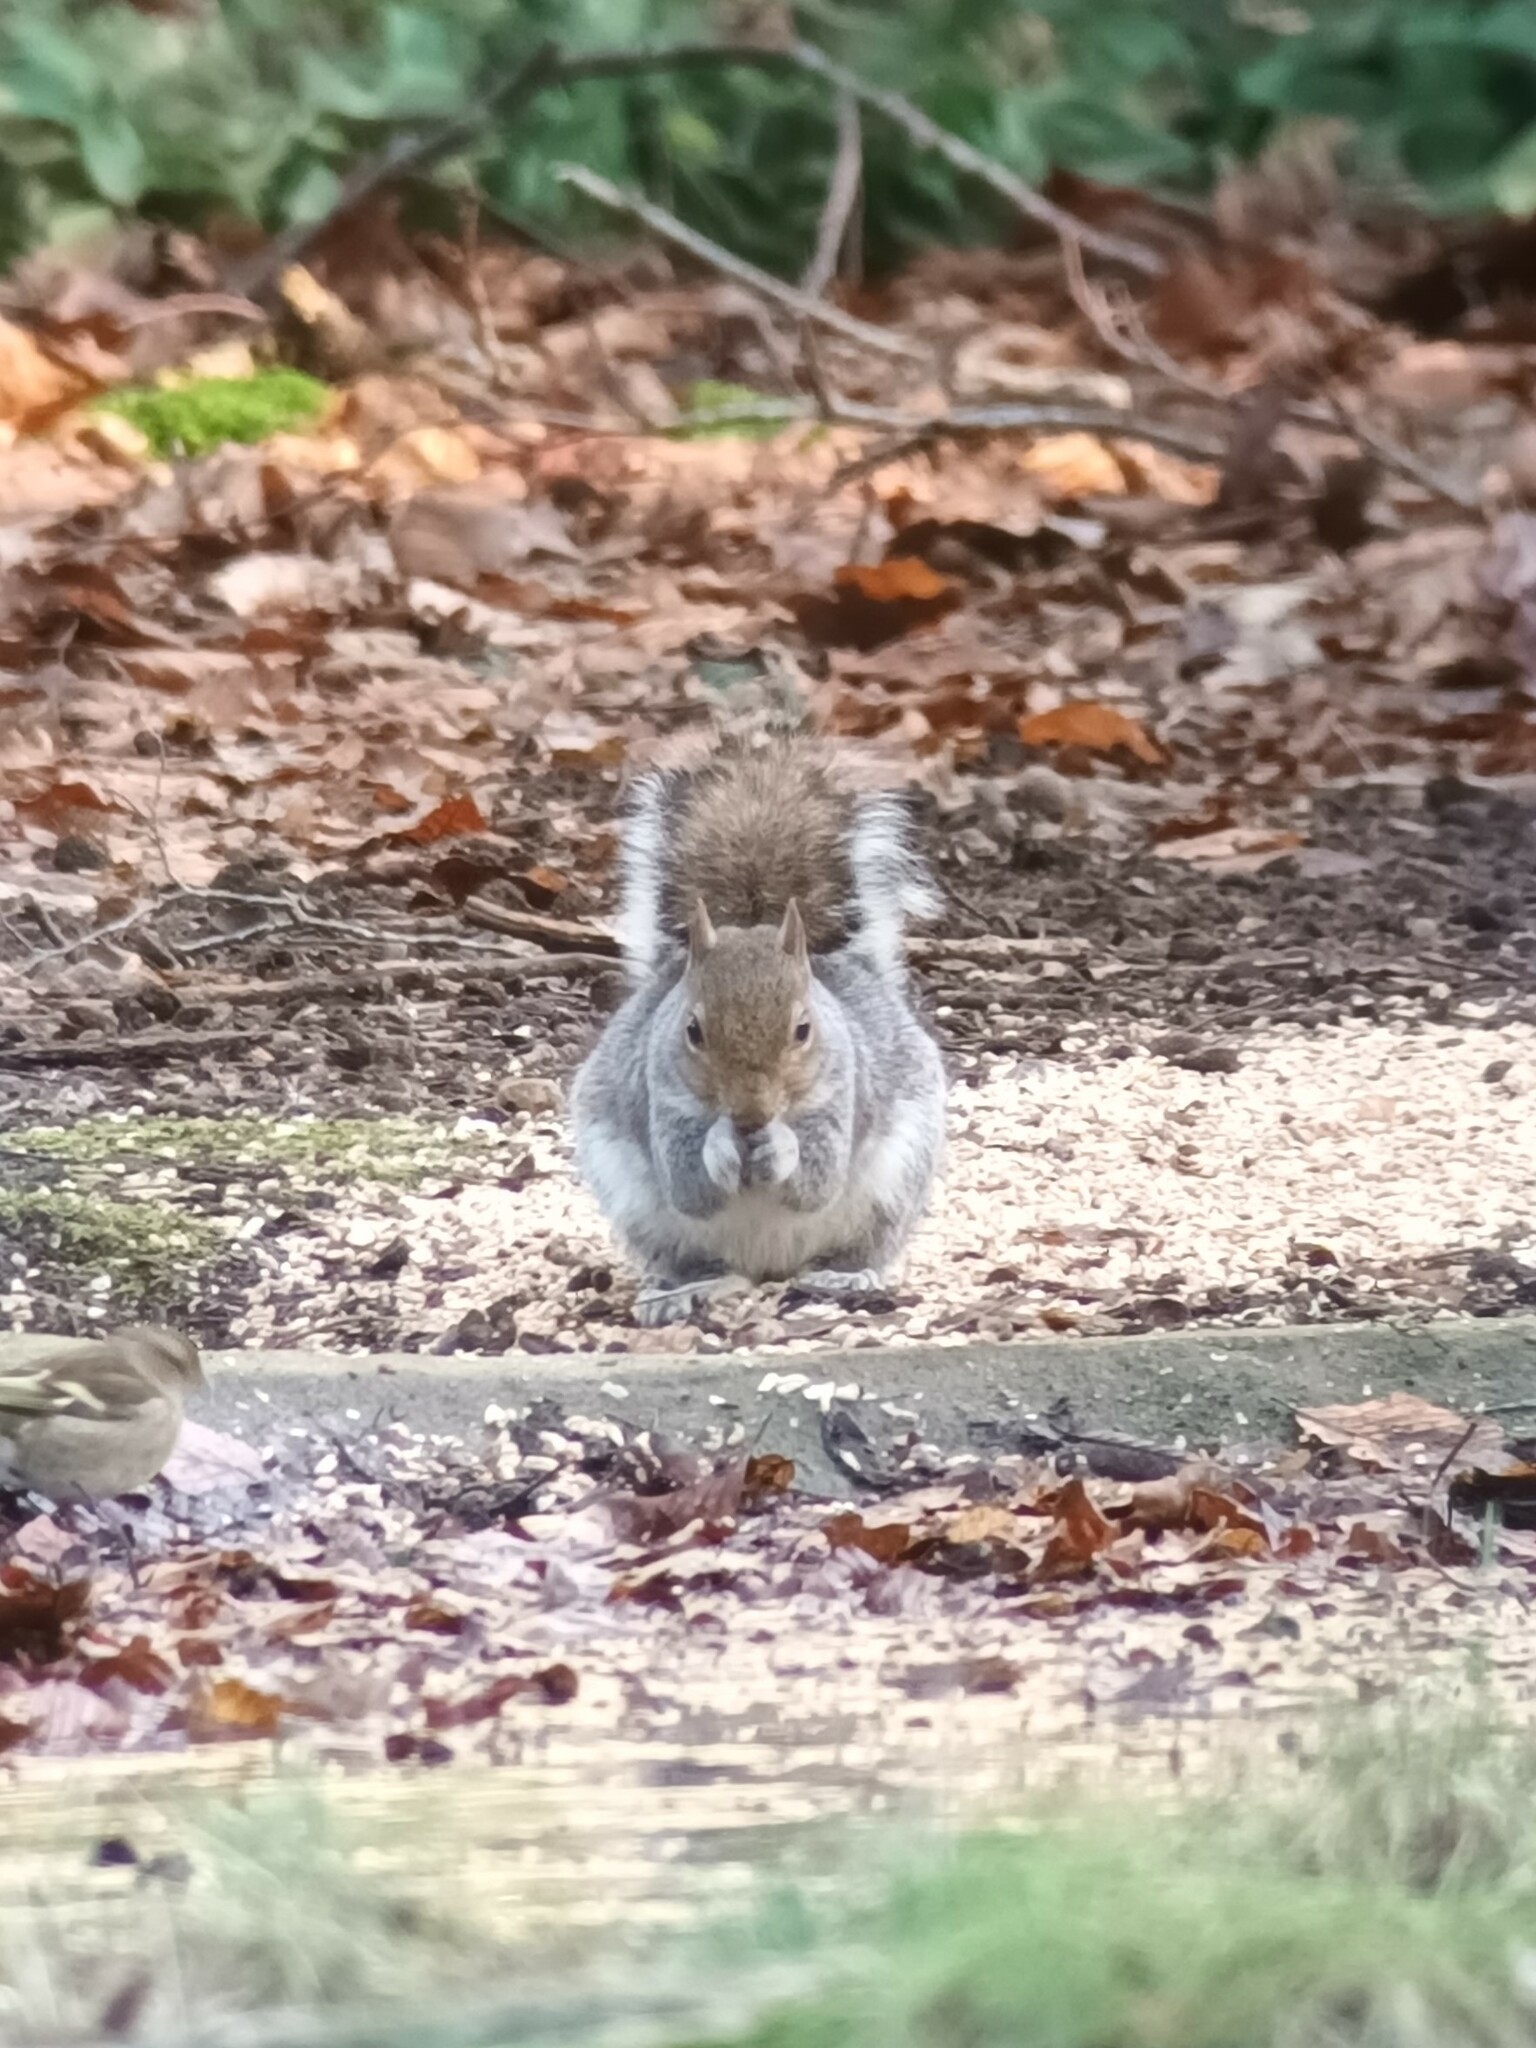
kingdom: Animalia
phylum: Chordata
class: Mammalia
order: Rodentia
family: Sciuridae
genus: Sciurus
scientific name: Sciurus carolinensis
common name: Eastern gray squirrel
